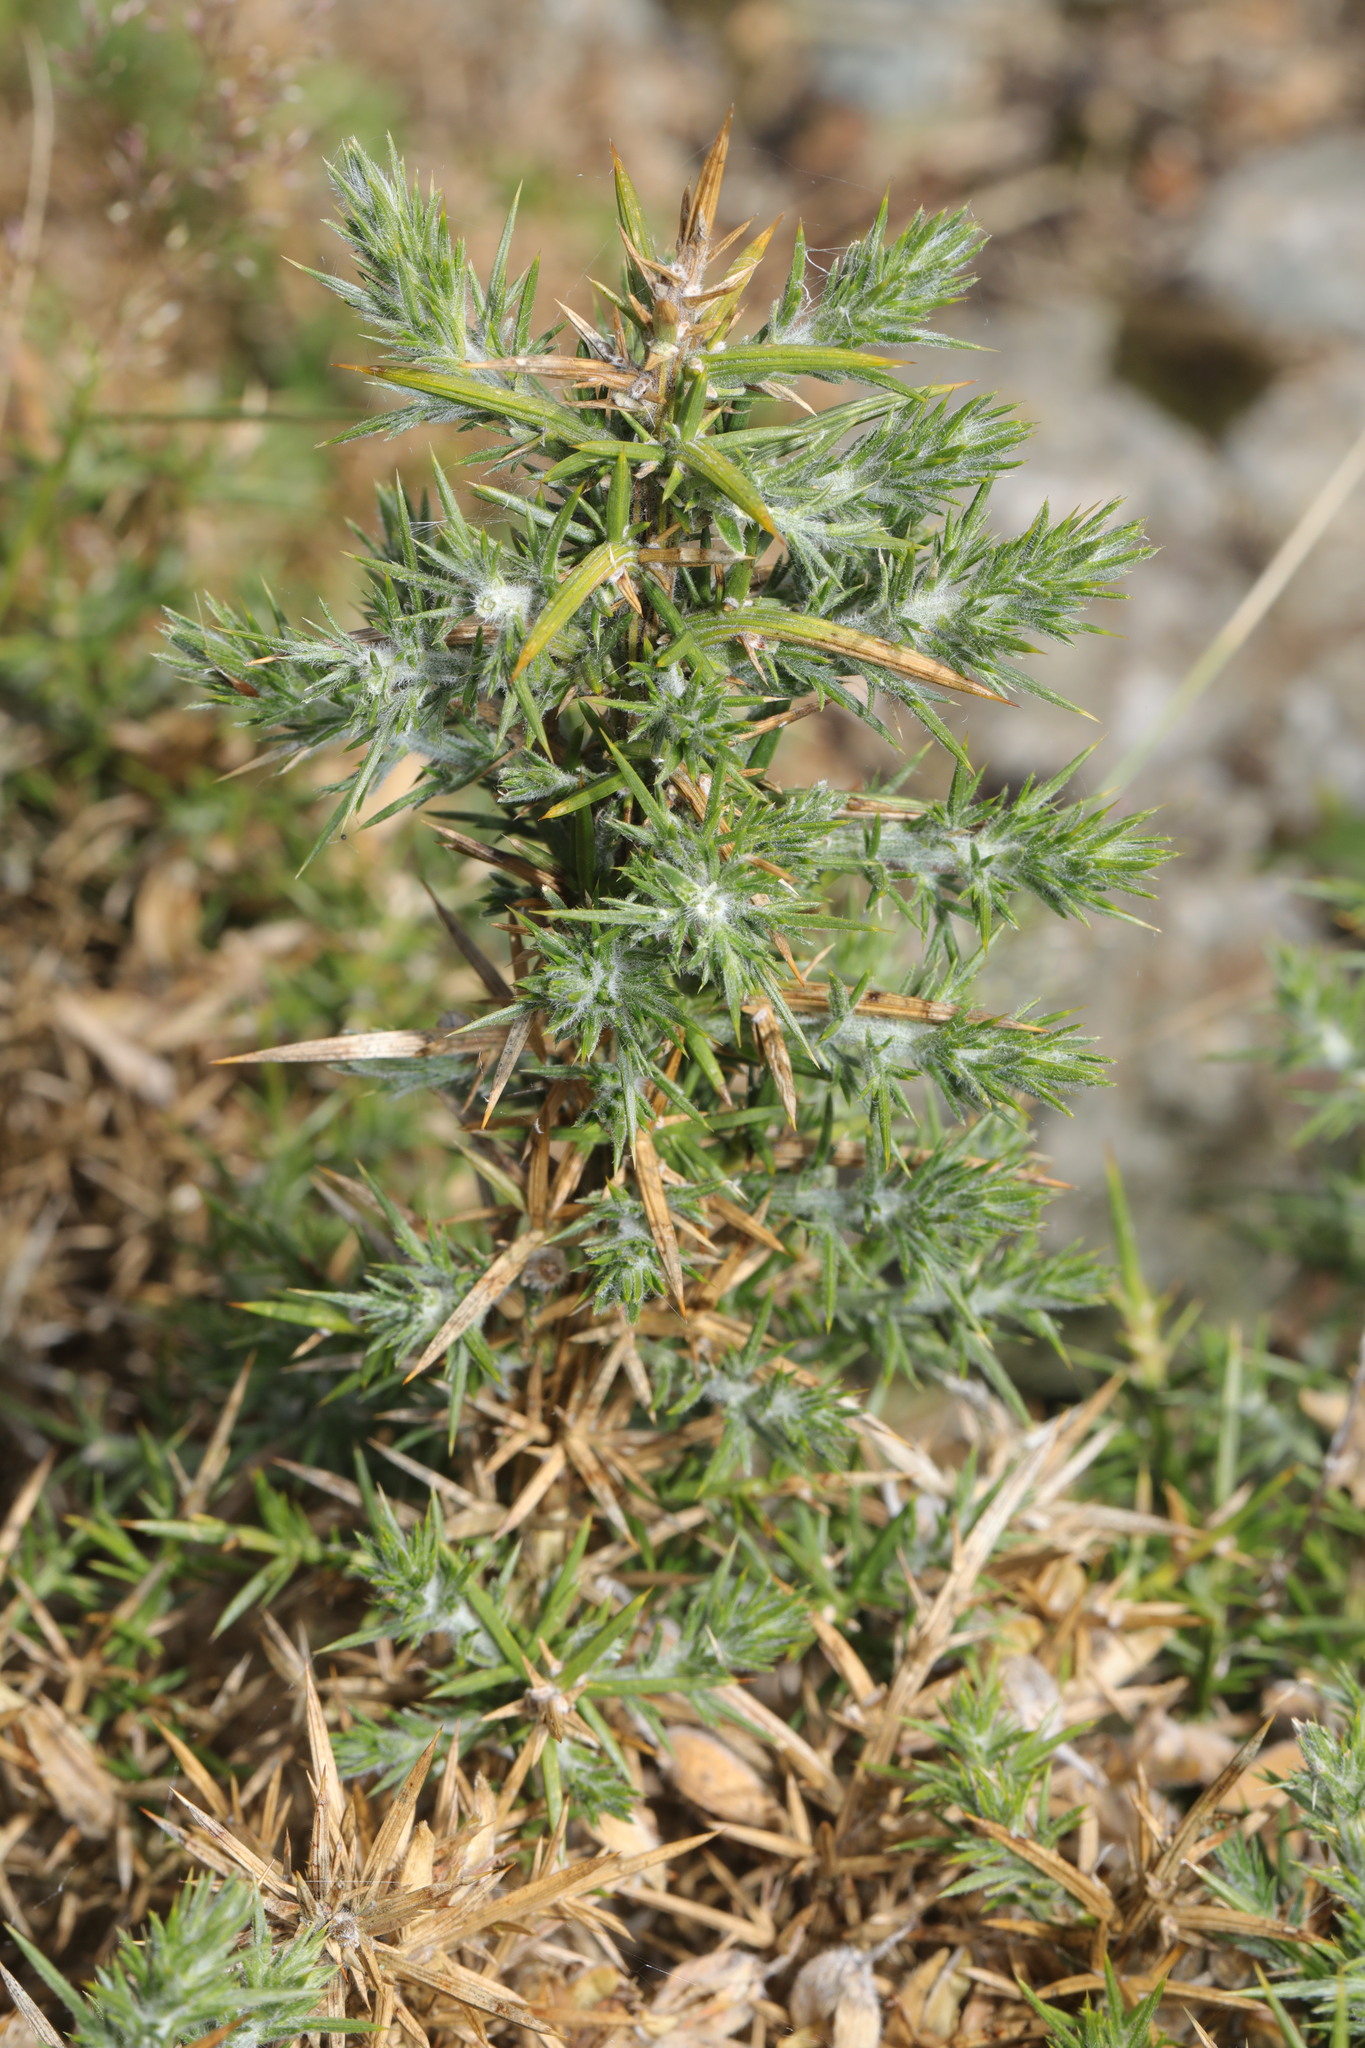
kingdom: Plantae
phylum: Tracheophyta
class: Magnoliopsida
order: Fabales
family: Fabaceae
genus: Ulex
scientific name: Ulex europaeus
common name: Common gorse
